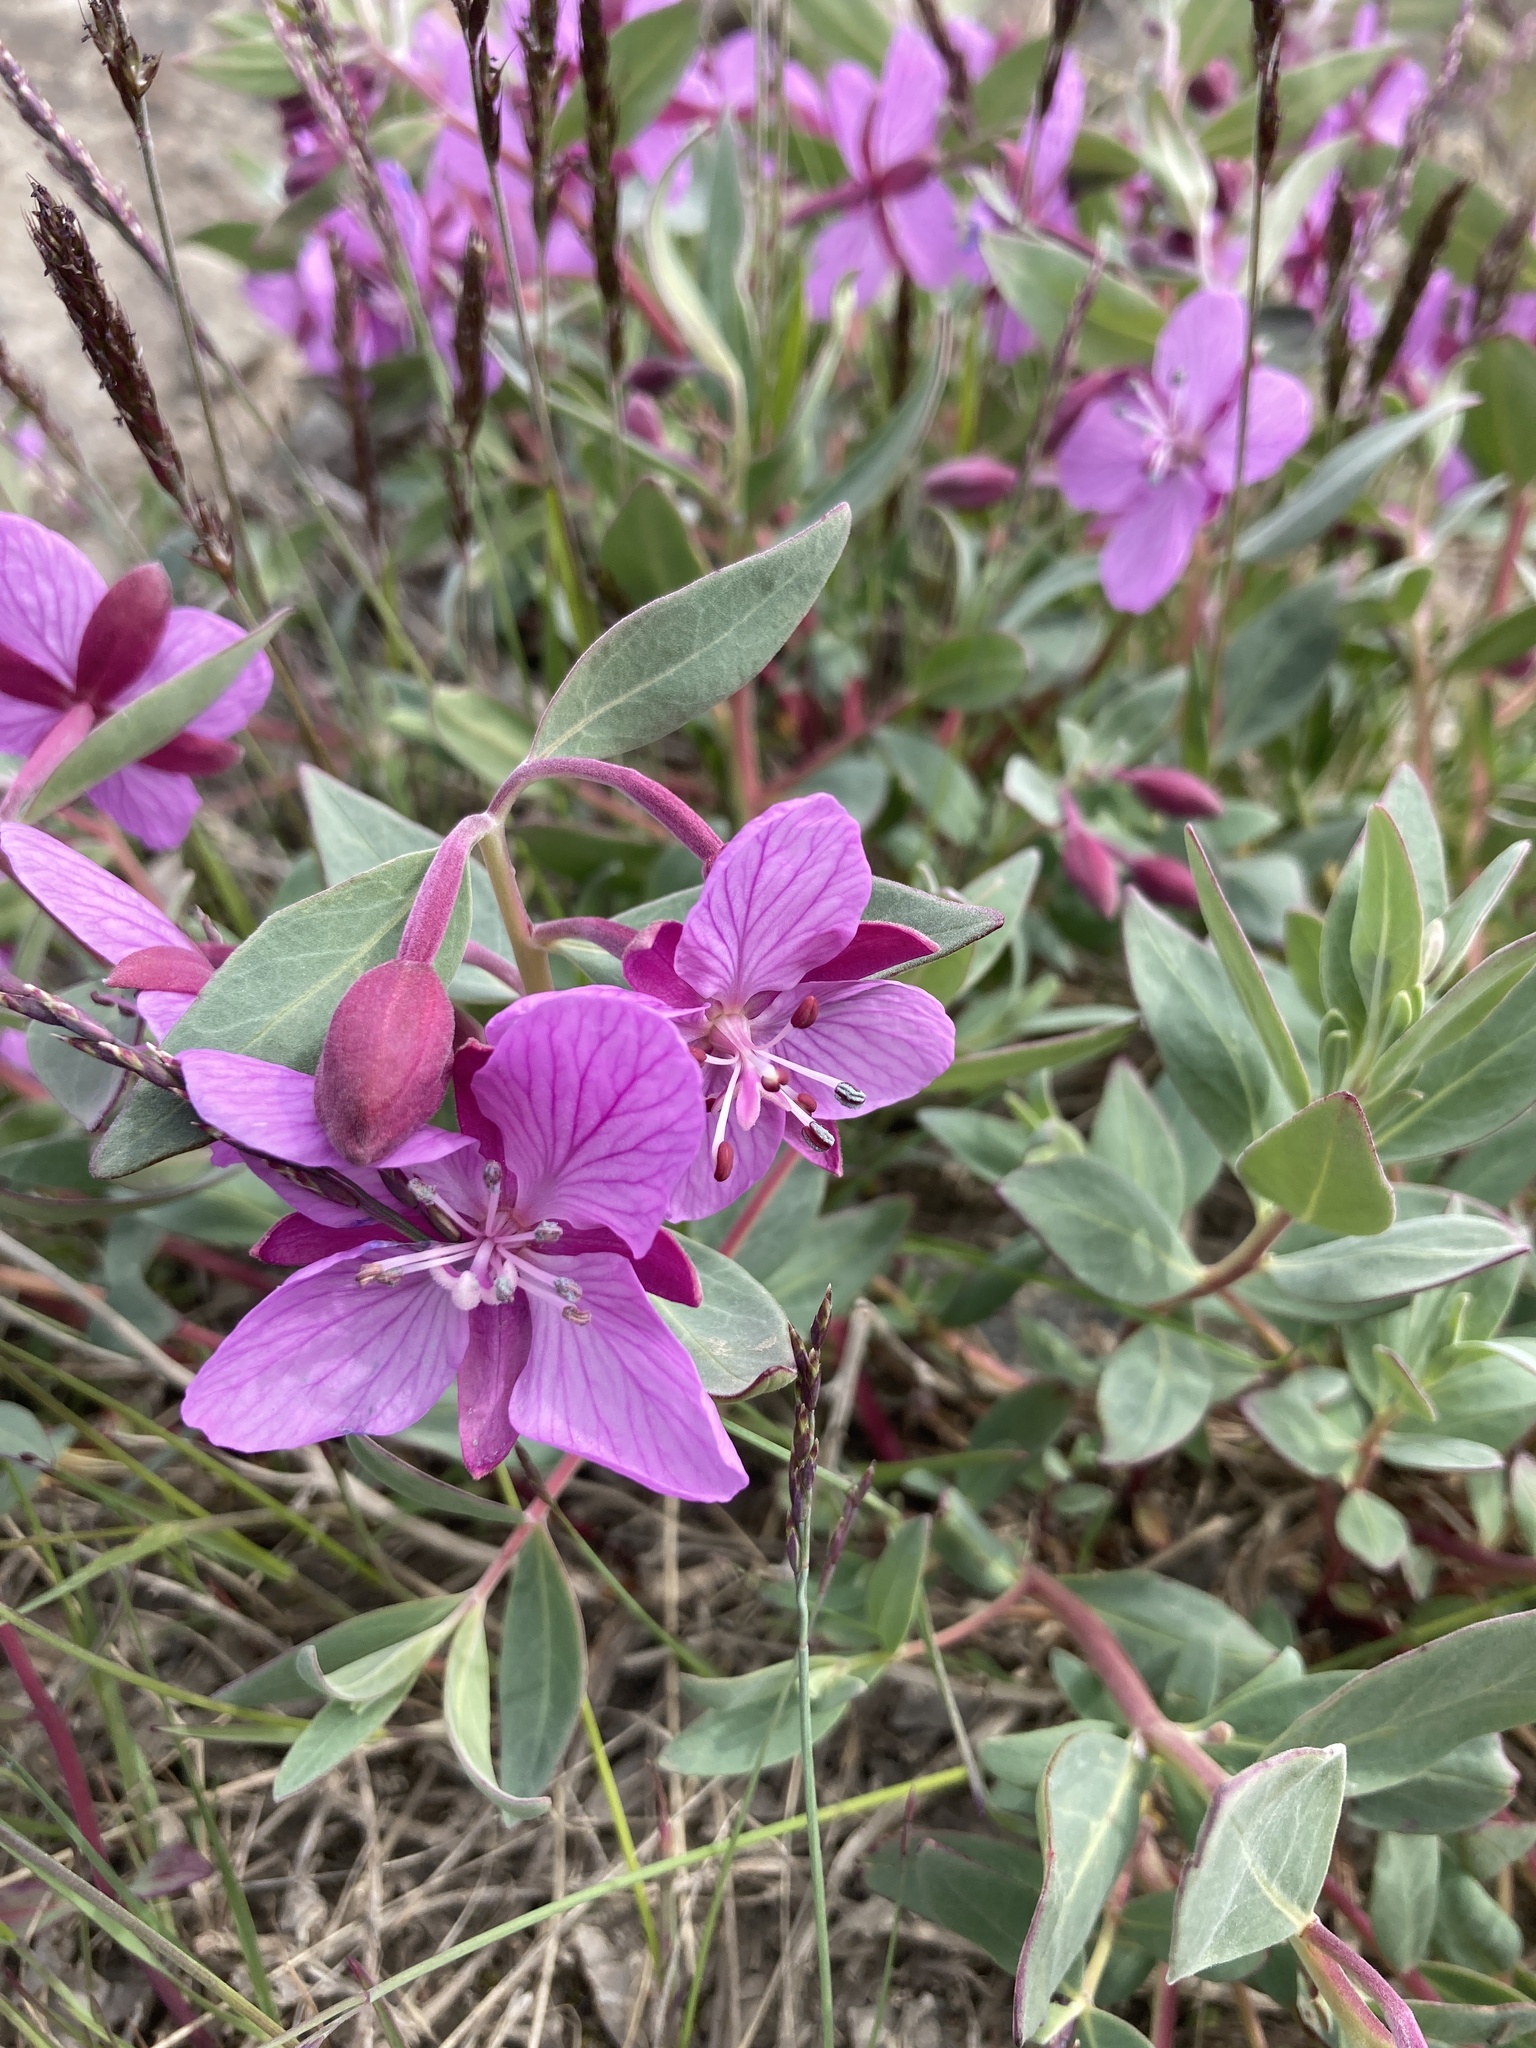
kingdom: Plantae
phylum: Tracheophyta
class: Magnoliopsida
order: Myrtales
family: Onagraceae
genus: Chamaenerion
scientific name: Chamaenerion latifolium
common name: Dwarf fireweed
